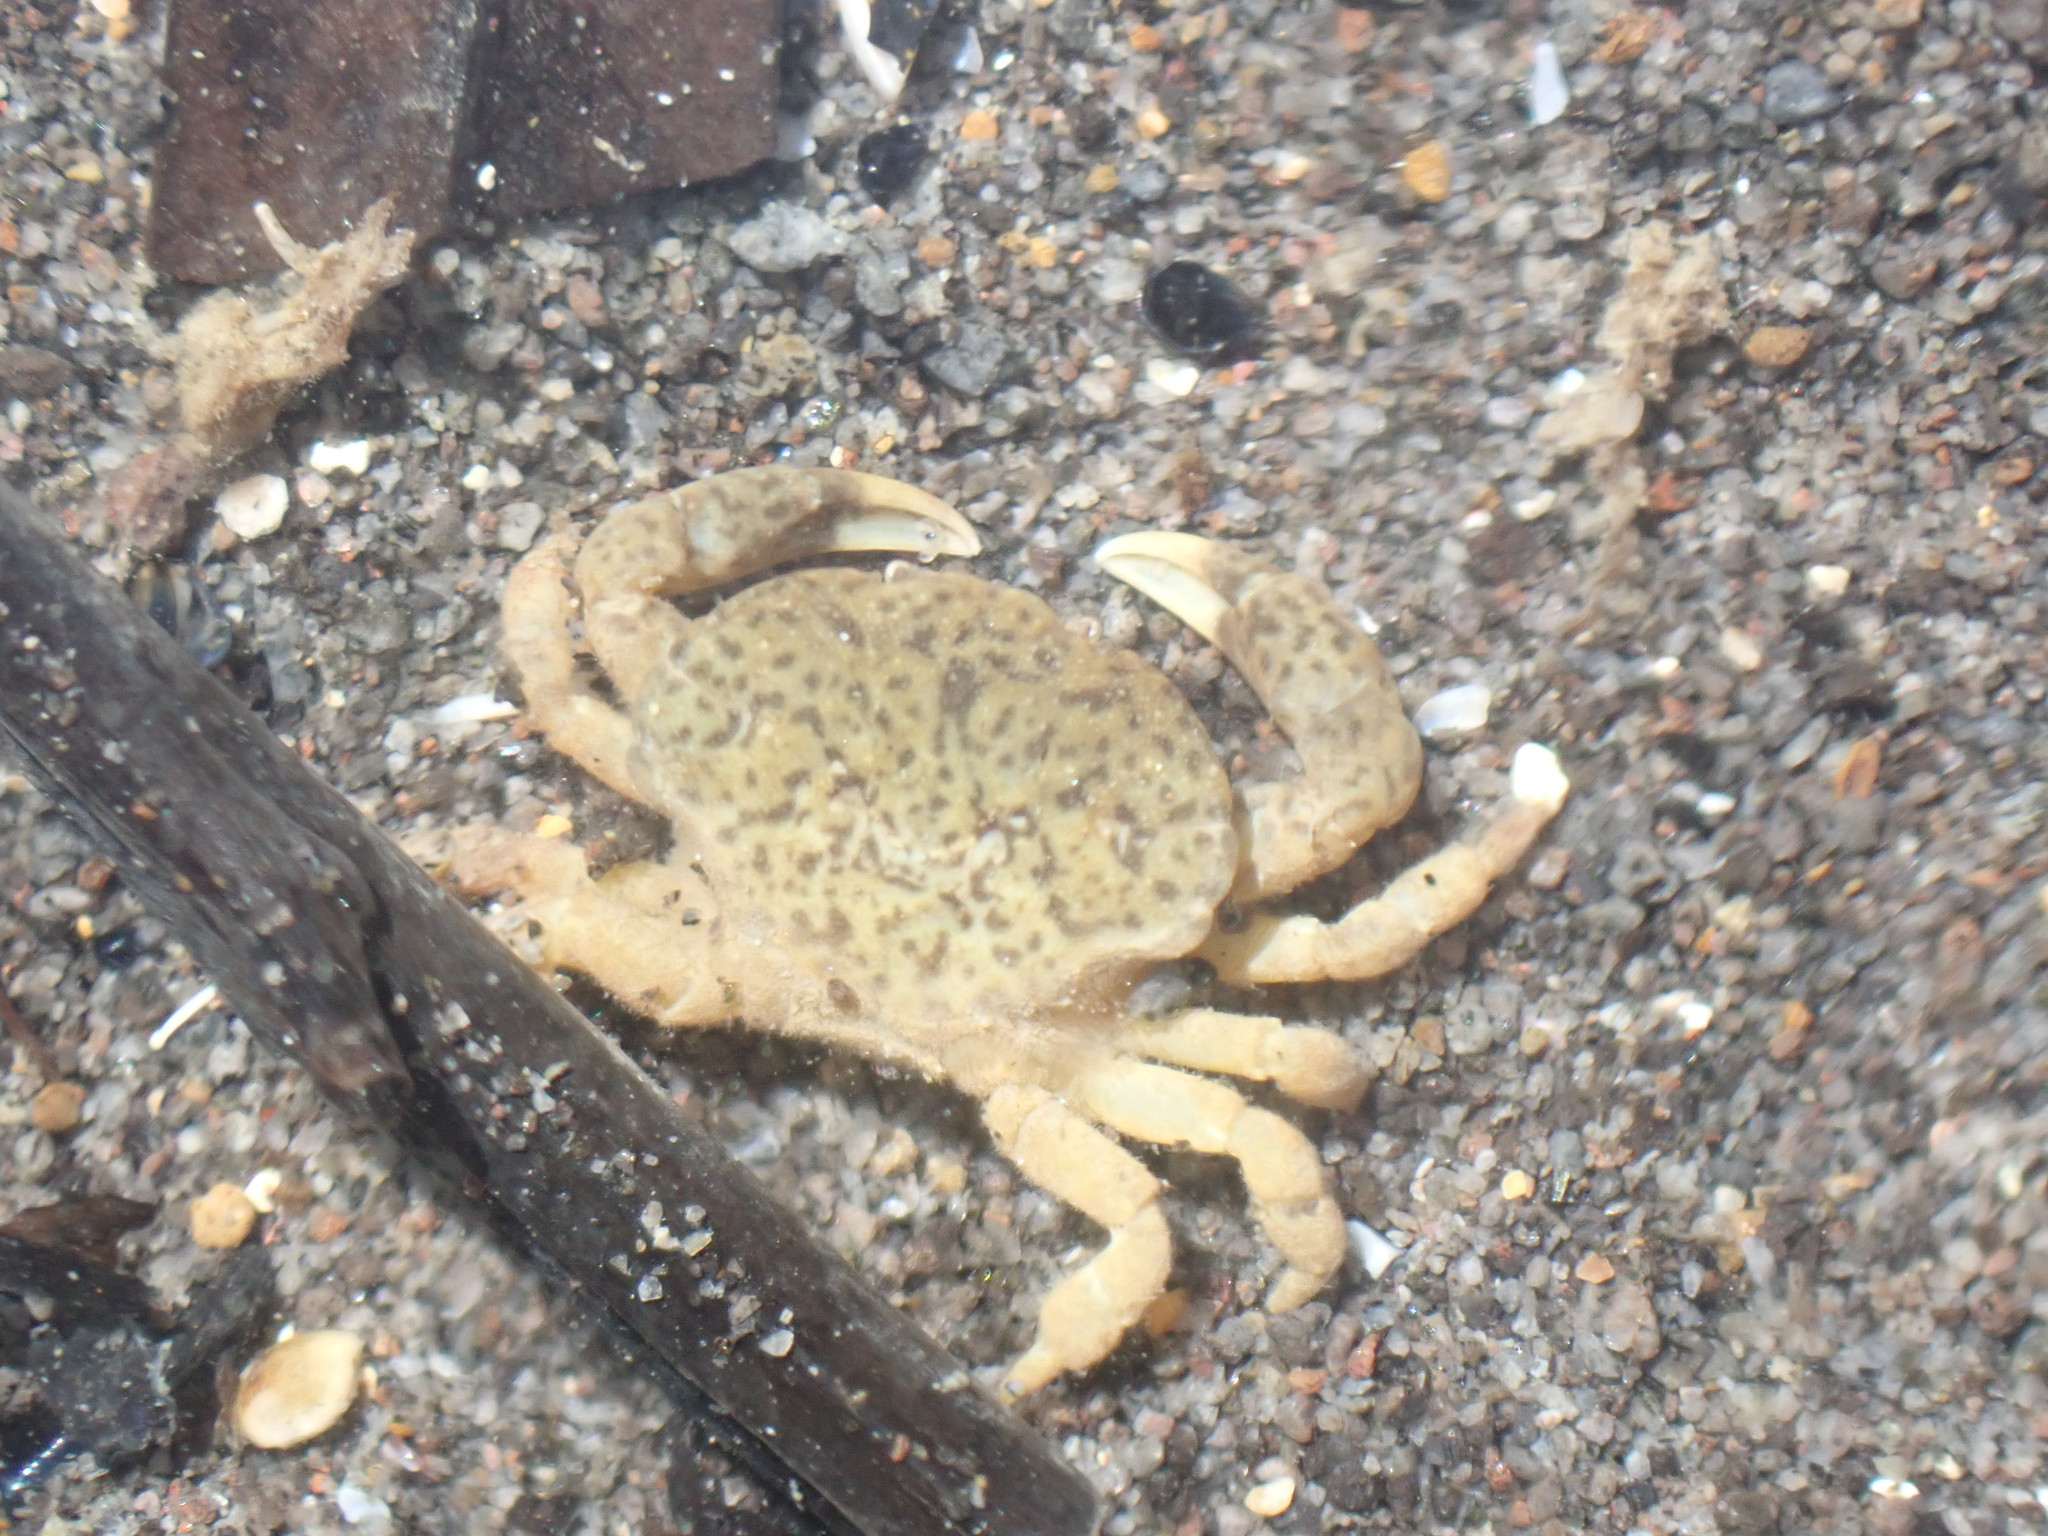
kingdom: Animalia
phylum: Arthropoda
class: Malacostraca
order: Decapoda
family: Heteroziidae
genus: Heterozius
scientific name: Heterozius rotundifrons
